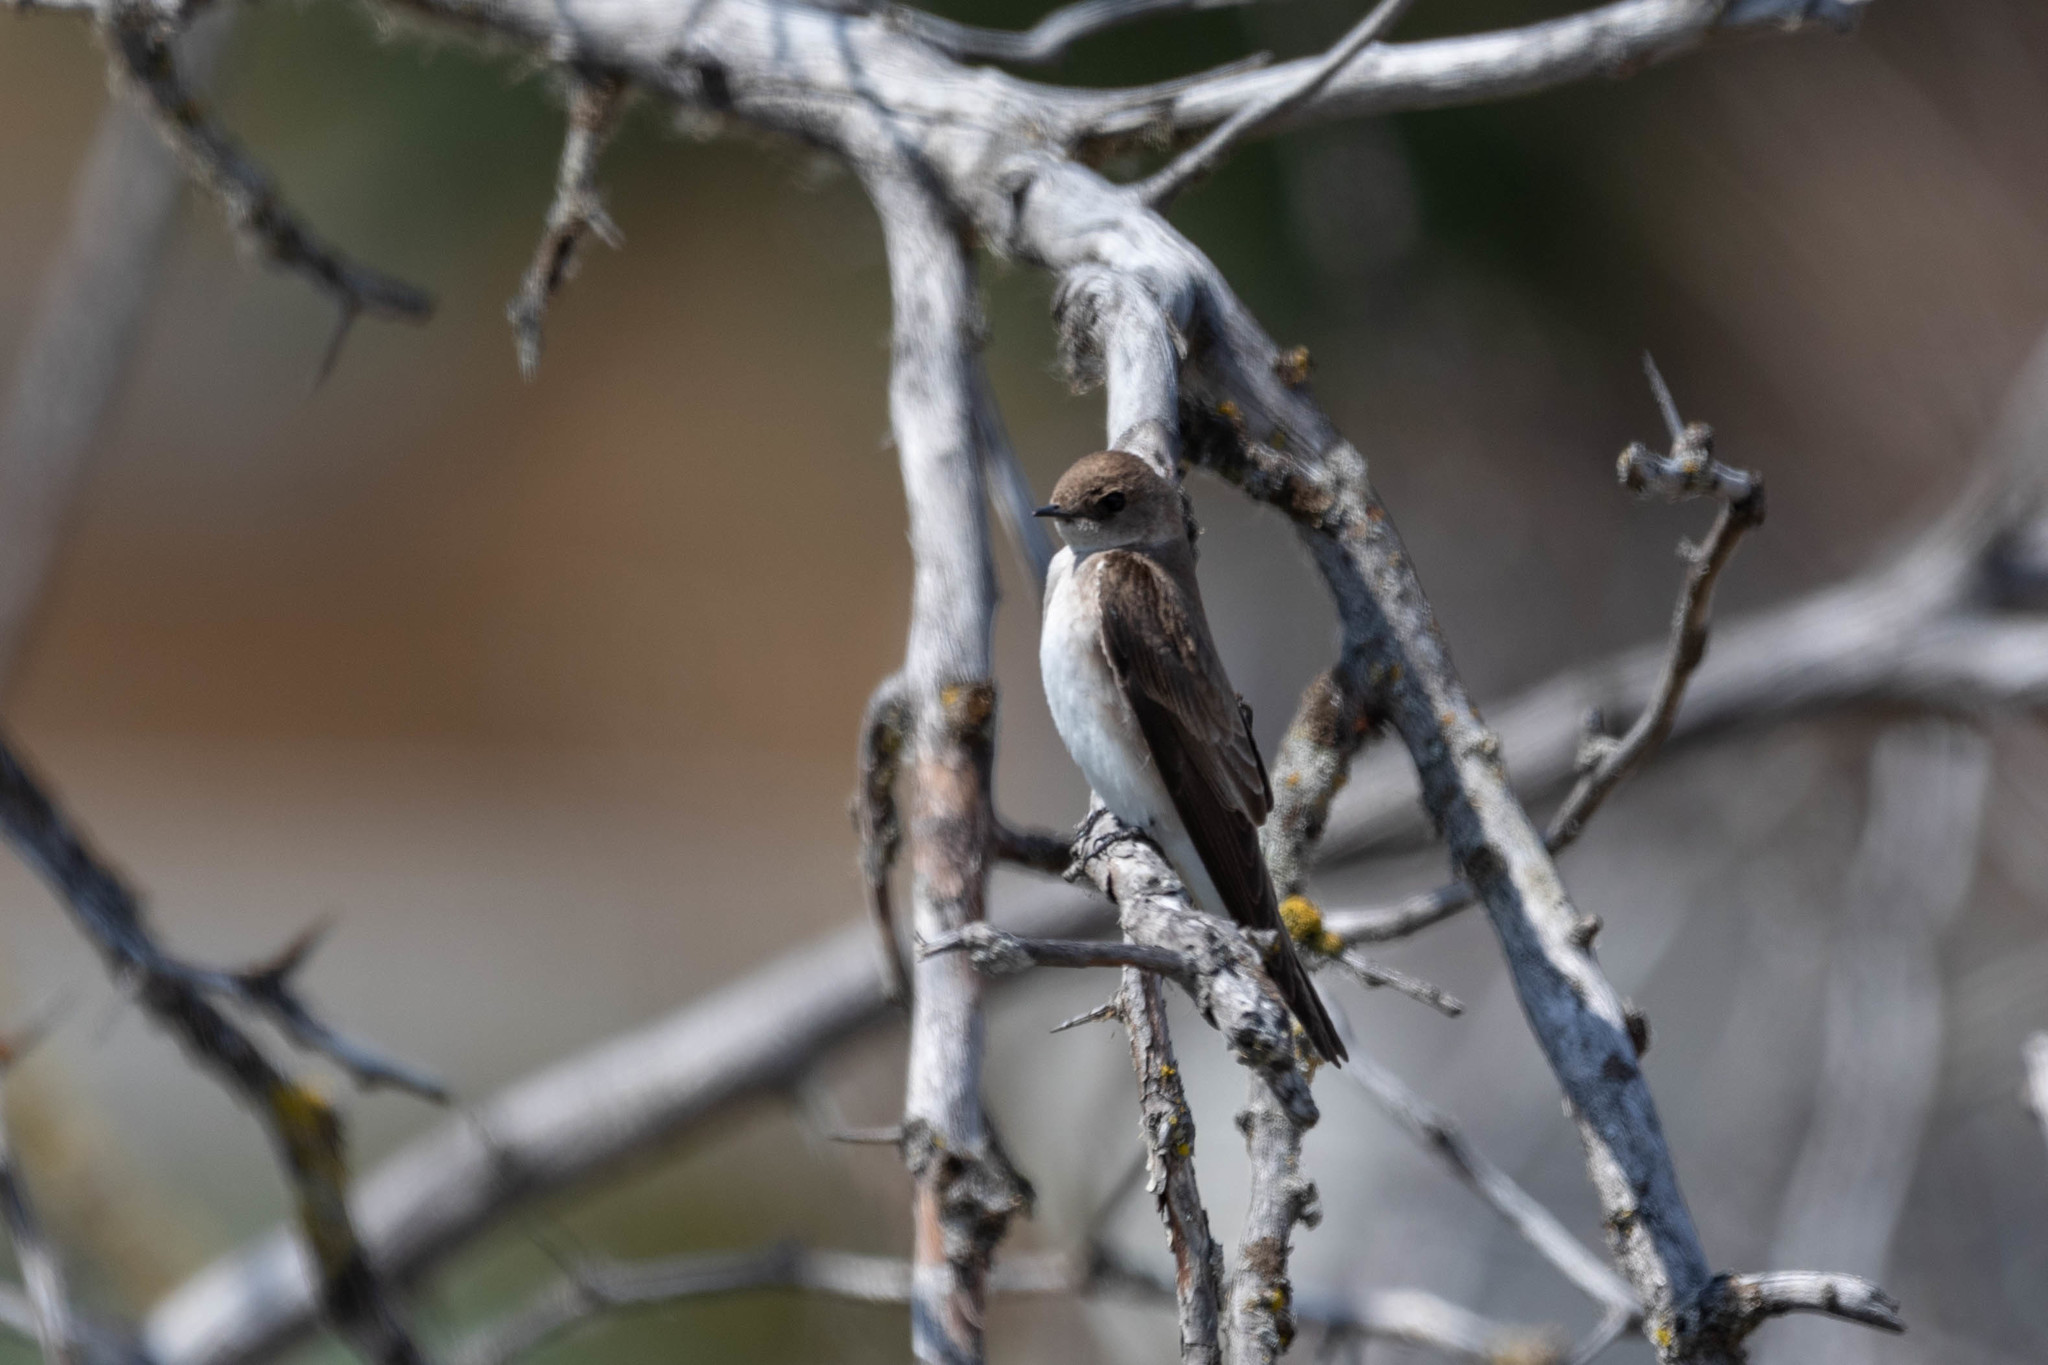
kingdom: Animalia
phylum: Chordata
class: Aves
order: Passeriformes
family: Hirundinidae
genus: Stelgidopteryx
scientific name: Stelgidopteryx serripennis
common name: Northern rough-winged swallow
